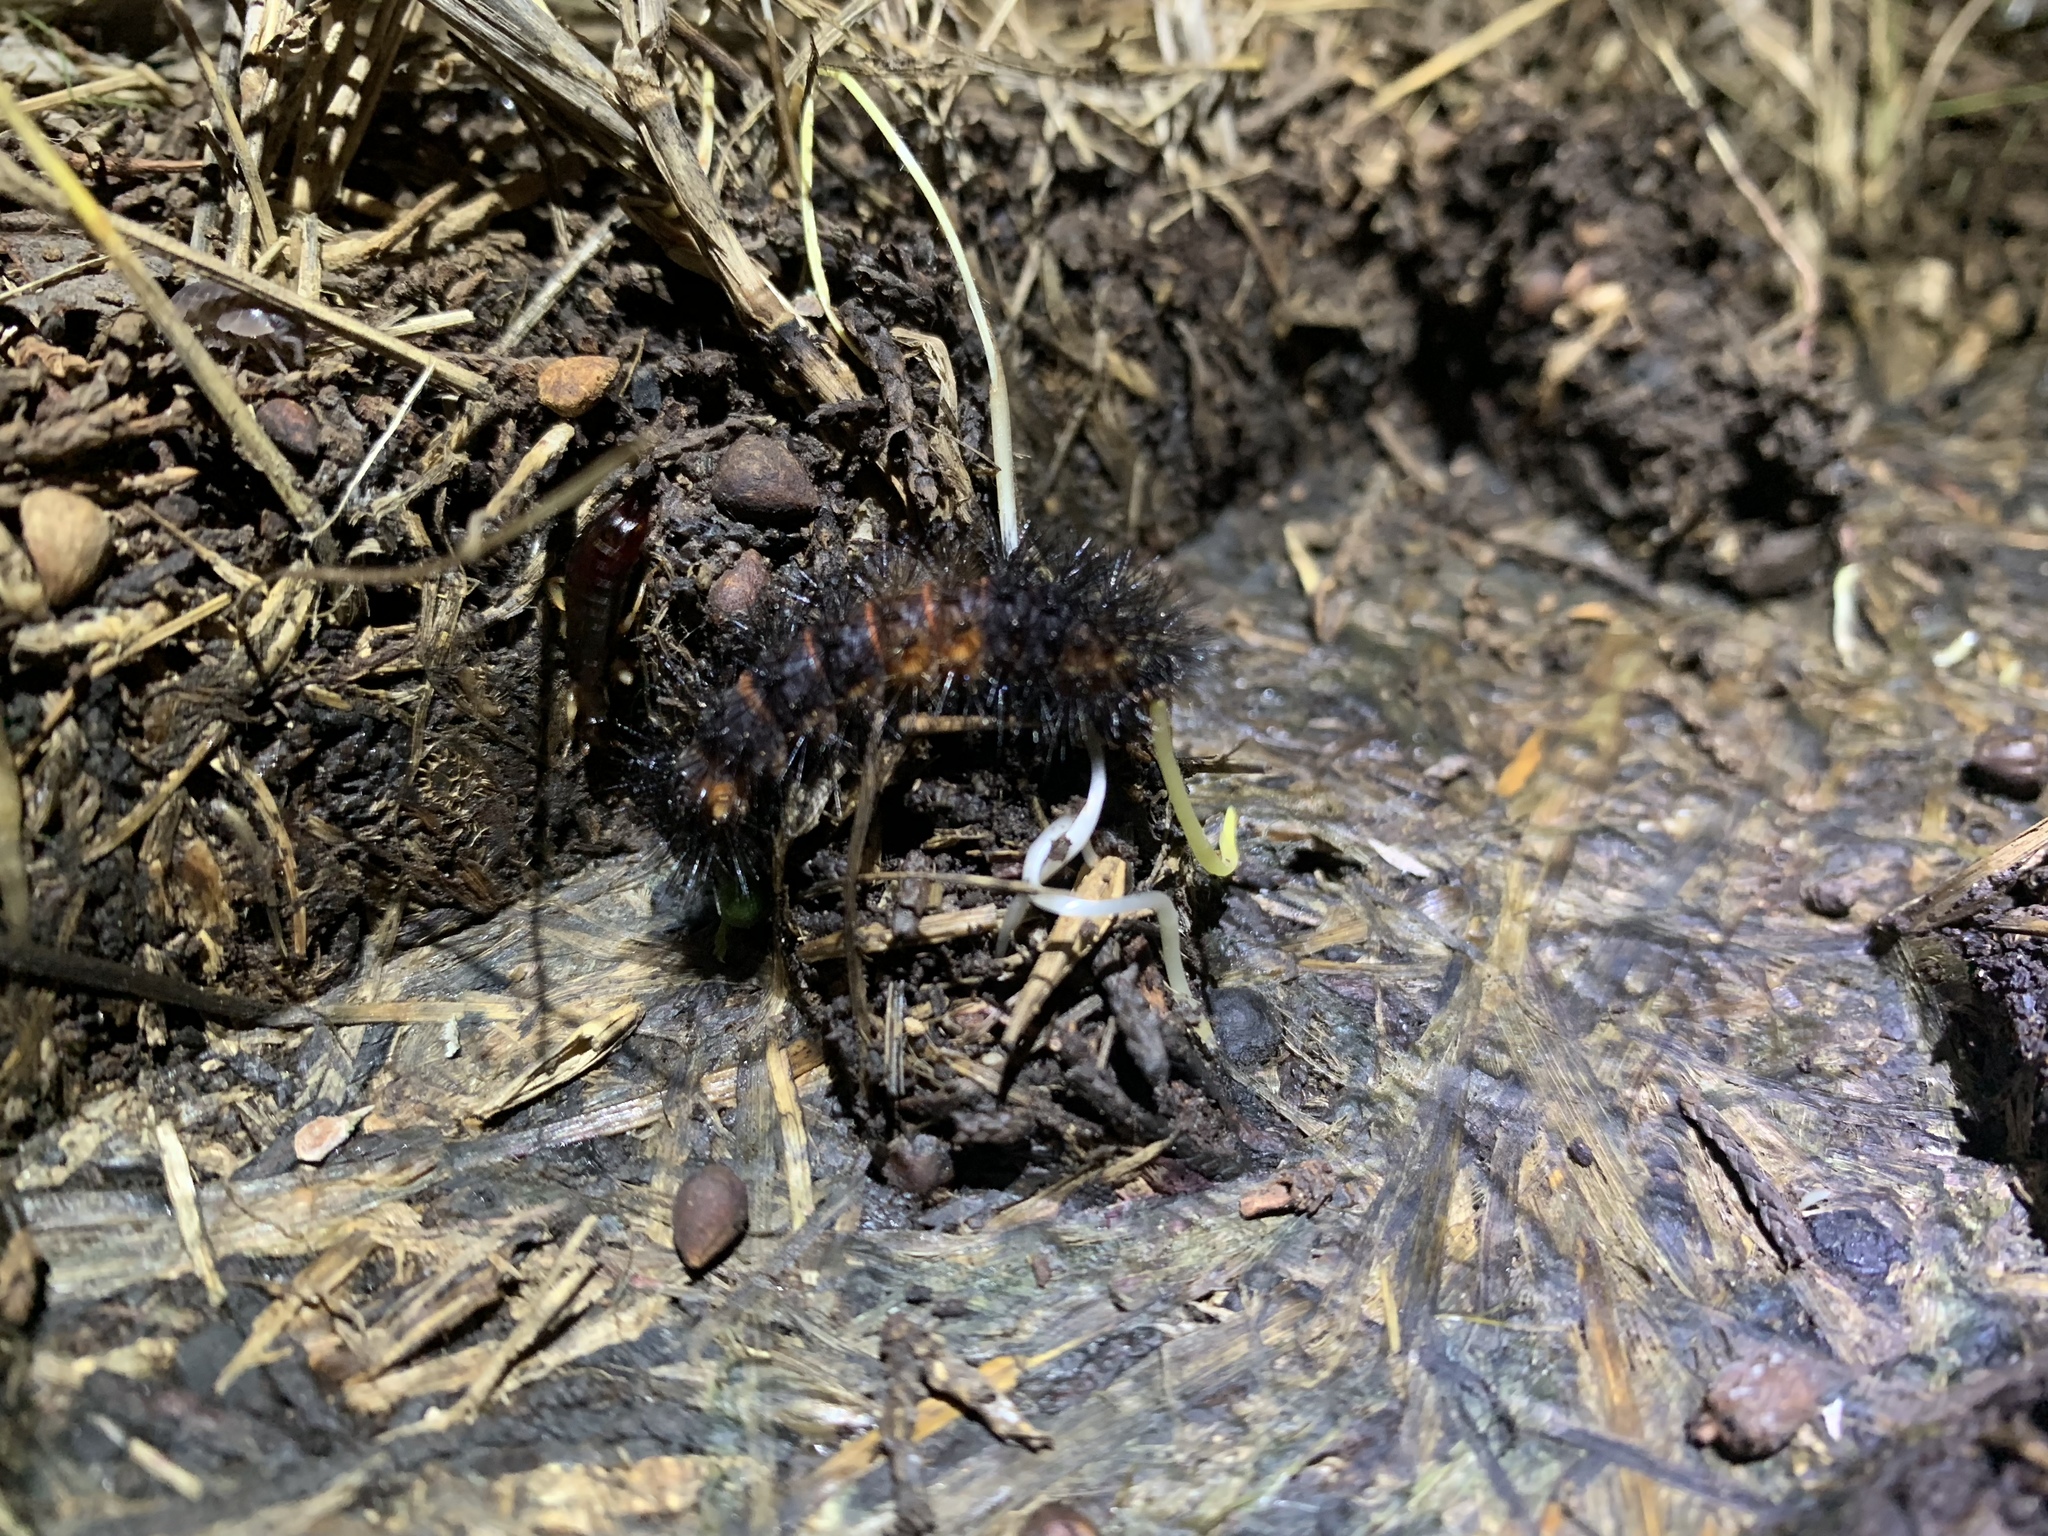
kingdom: Animalia
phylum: Arthropoda
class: Insecta
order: Lepidoptera
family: Erebidae
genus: Hypercompe
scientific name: Hypercompe scribonia
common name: Giant leopard moth
